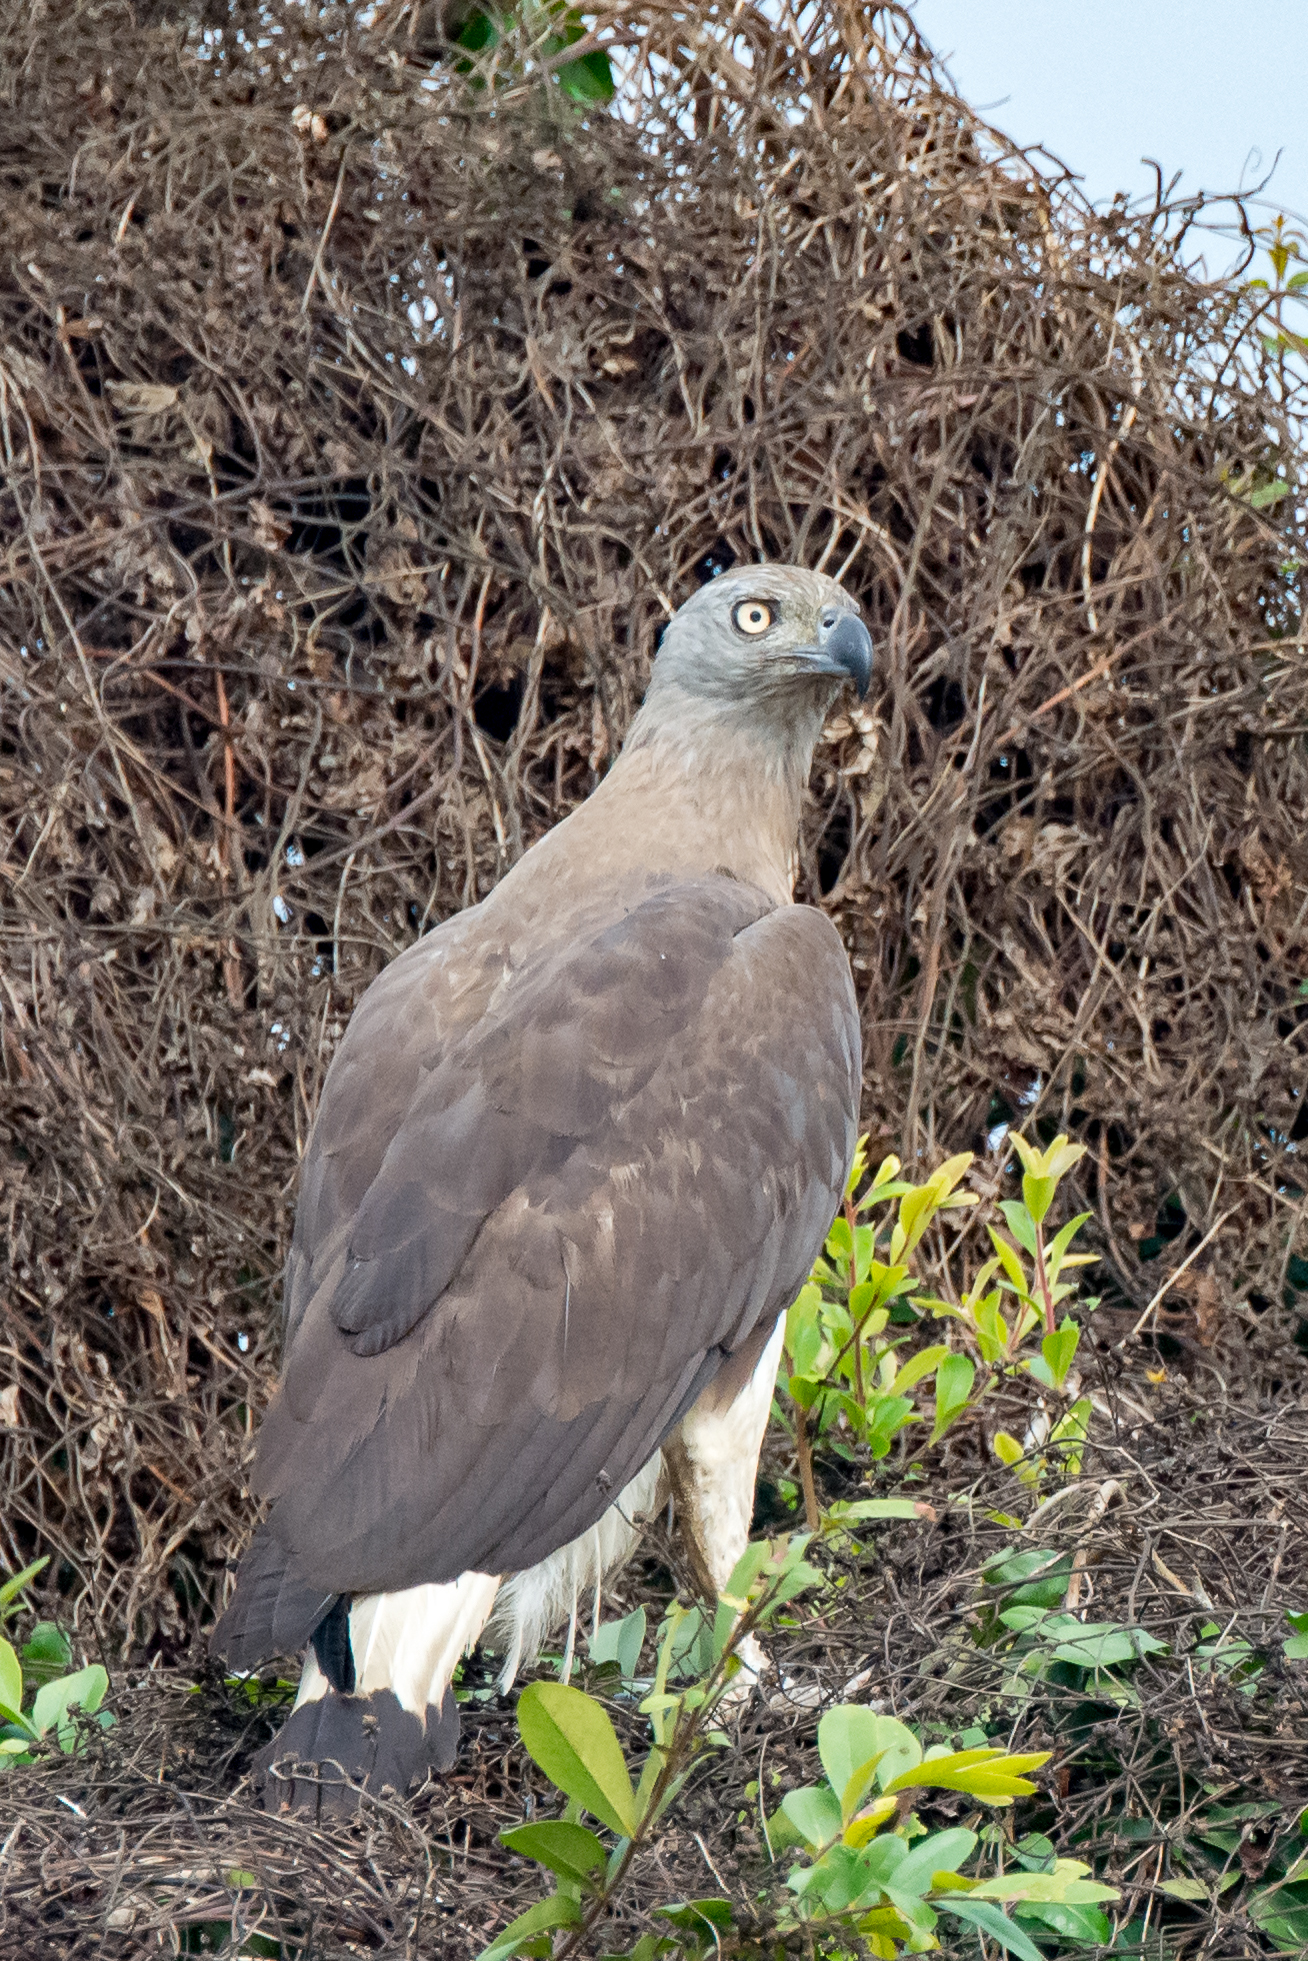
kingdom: Animalia
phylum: Chordata
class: Aves
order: Accipitriformes
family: Accipitridae
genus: Icthyophaga
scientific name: Icthyophaga ichthyaetus
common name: Grey-headed fish eagle
